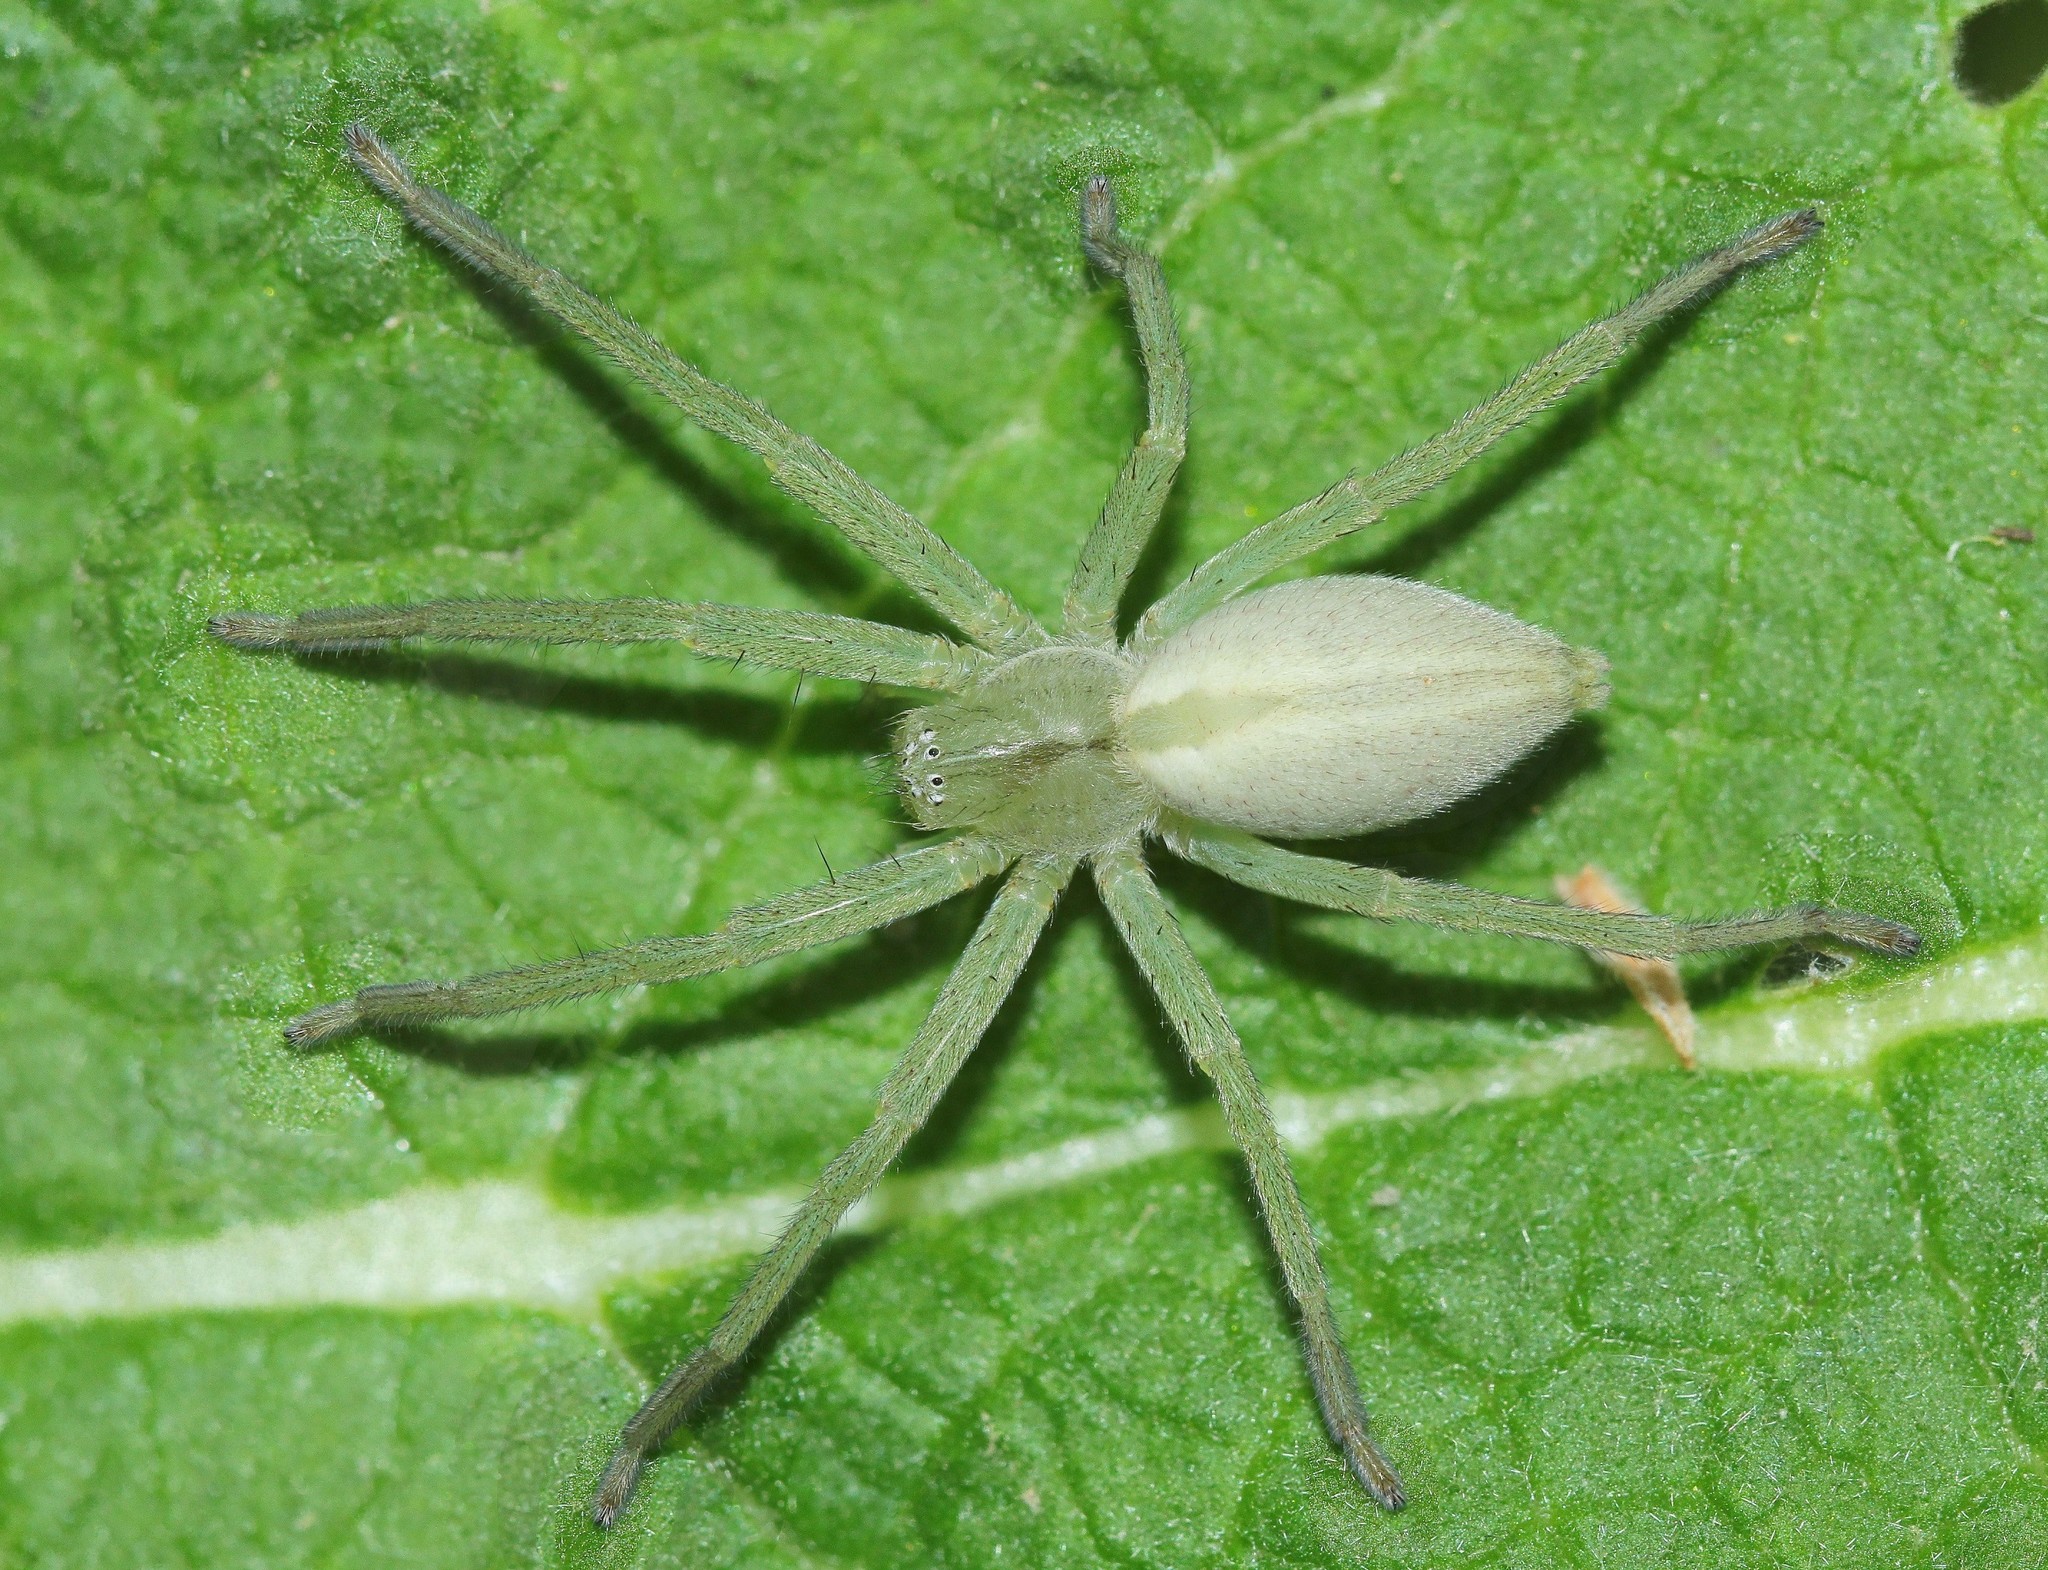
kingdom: Animalia
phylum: Arthropoda
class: Arachnida
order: Araneae
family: Sparassidae
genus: Micrommata
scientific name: Micrommata virescens
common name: Green spider
